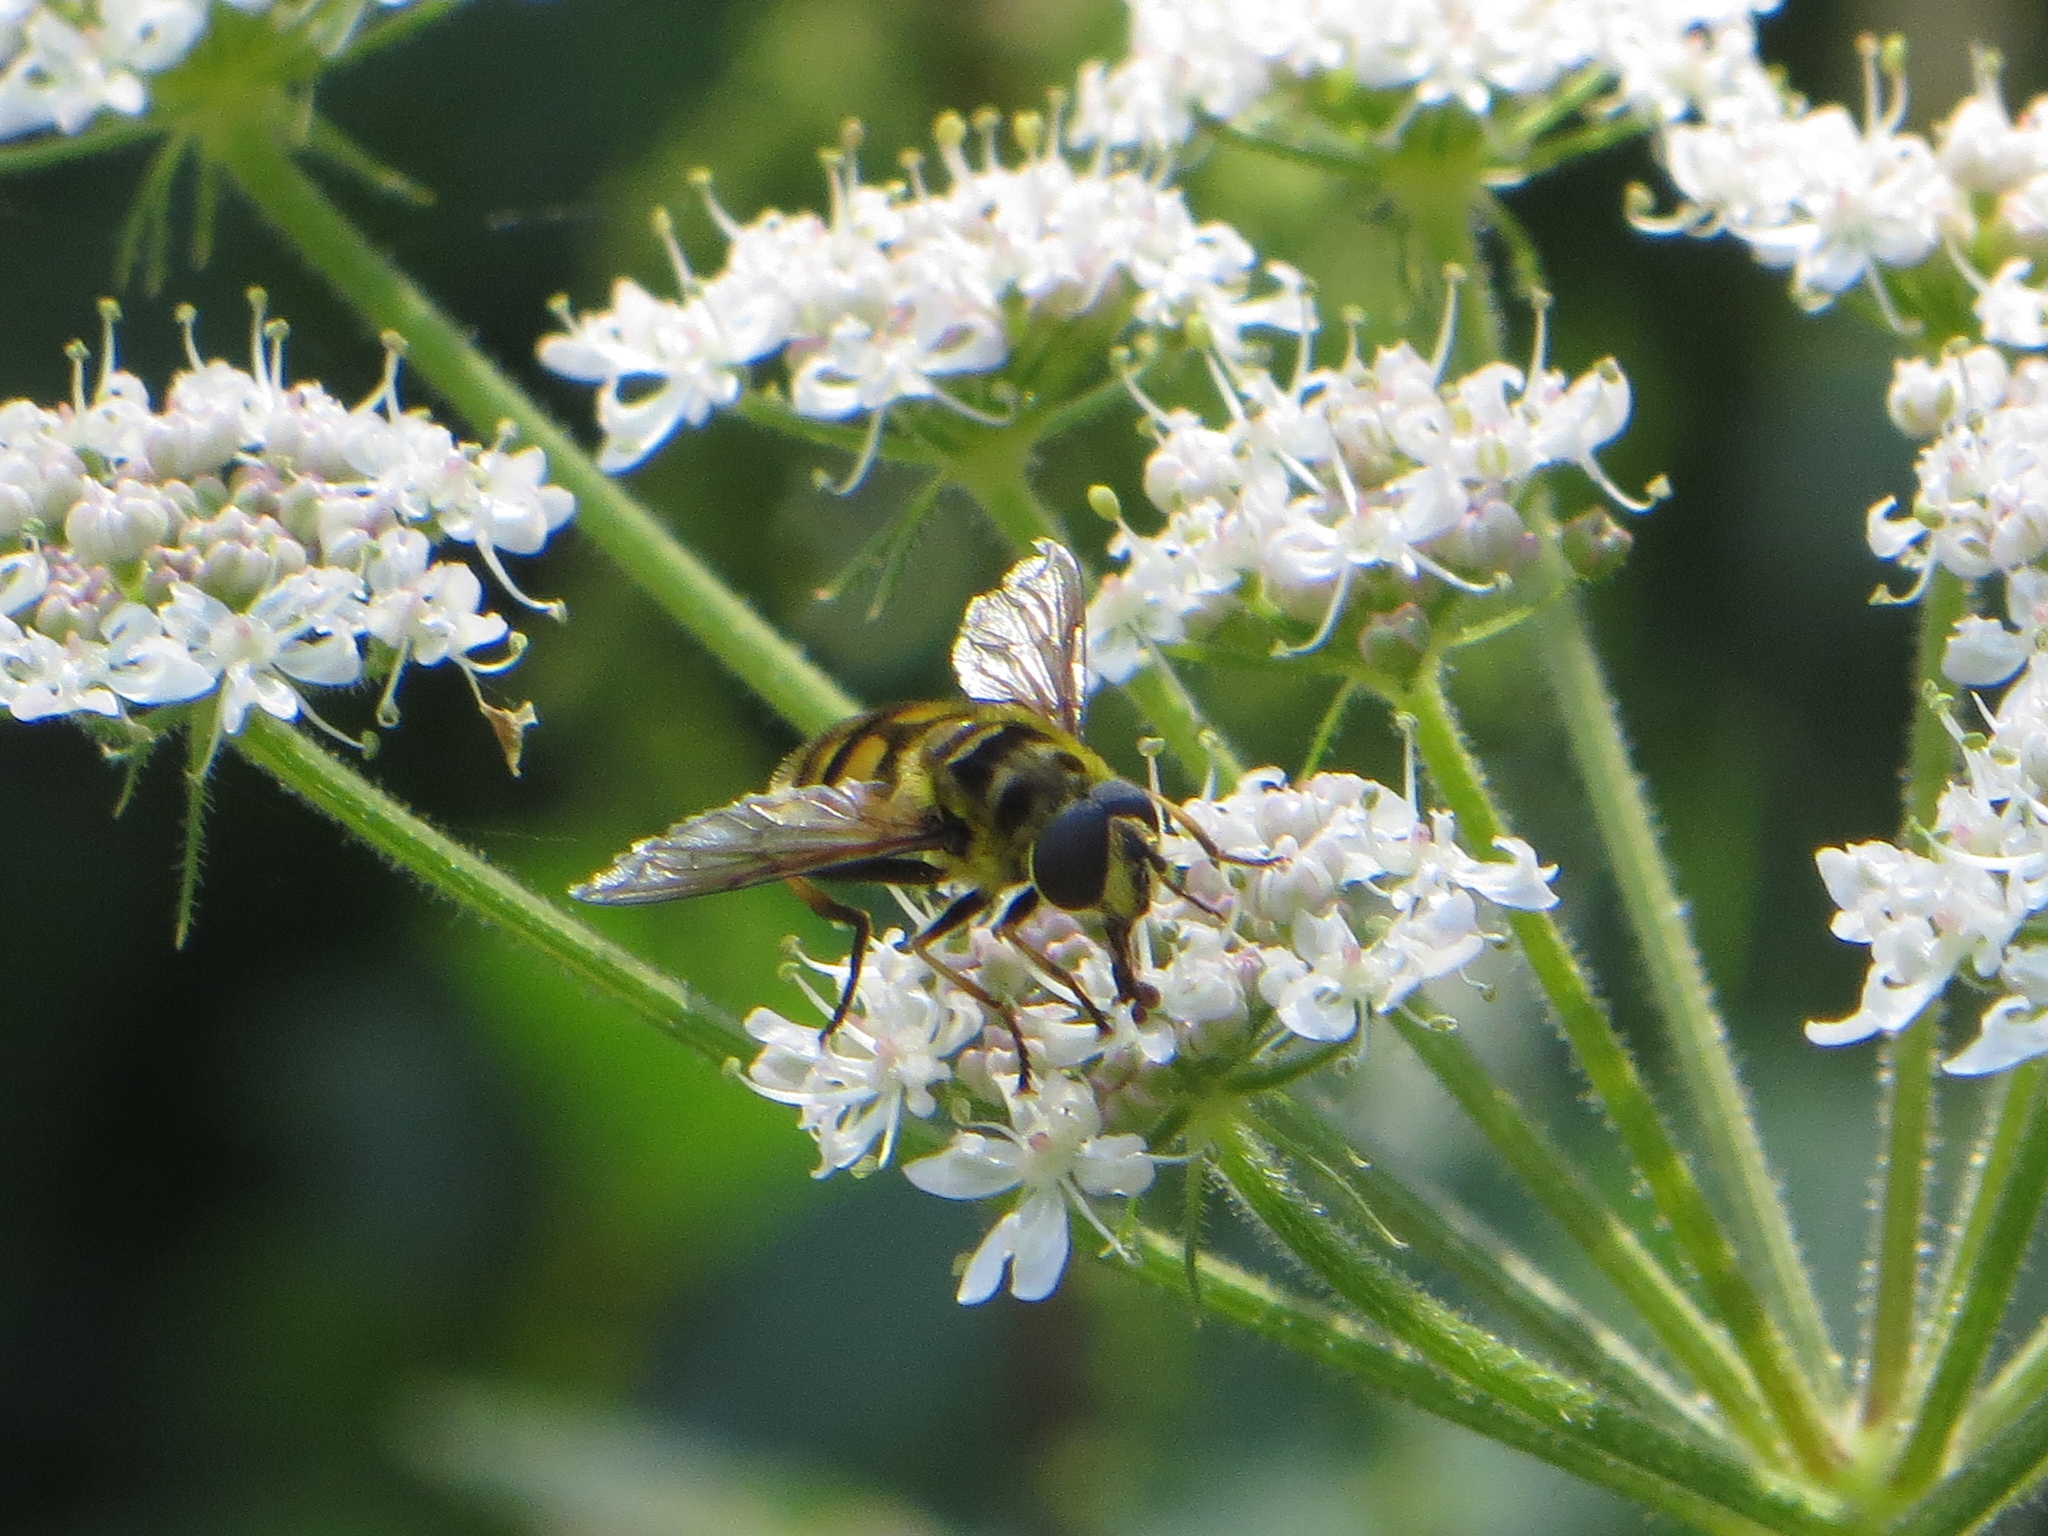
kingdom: Animalia
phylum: Arthropoda
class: Insecta
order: Diptera
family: Syrphidae
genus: Myathropa
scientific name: Myathropa florea
